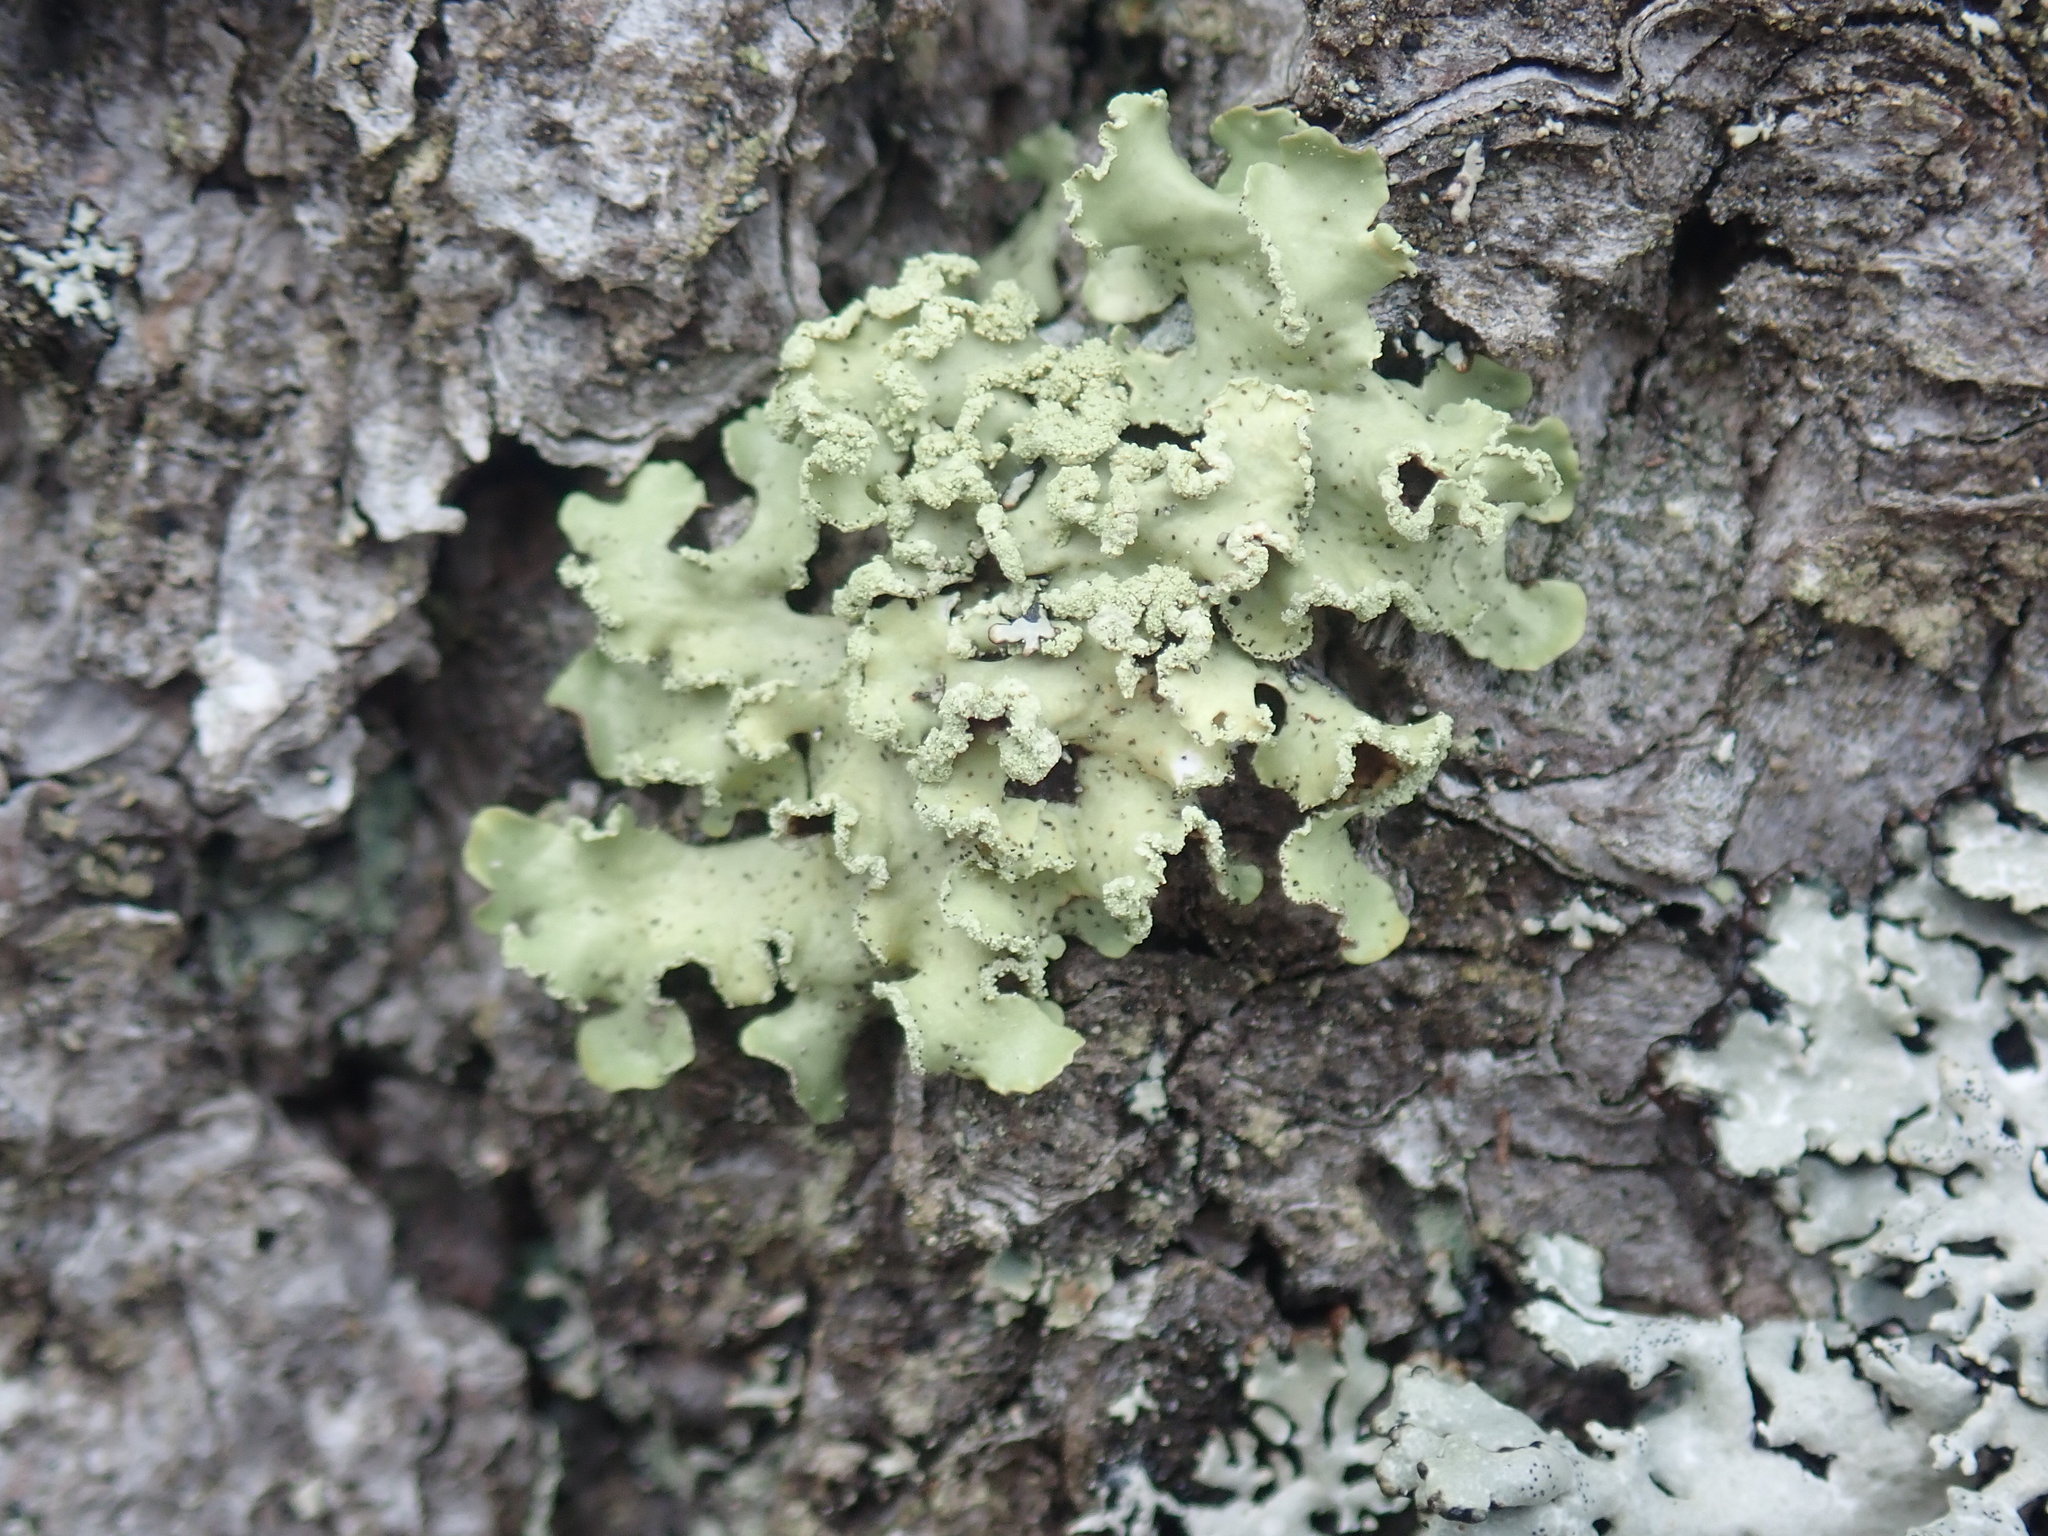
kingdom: Fungi
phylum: Ascomycota
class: Lecanoromycetes
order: Lecanorales
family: Parmeliaceae
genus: Usnocetraria
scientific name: Usnocetraria oakesiana
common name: Yellow ribbon lichen
